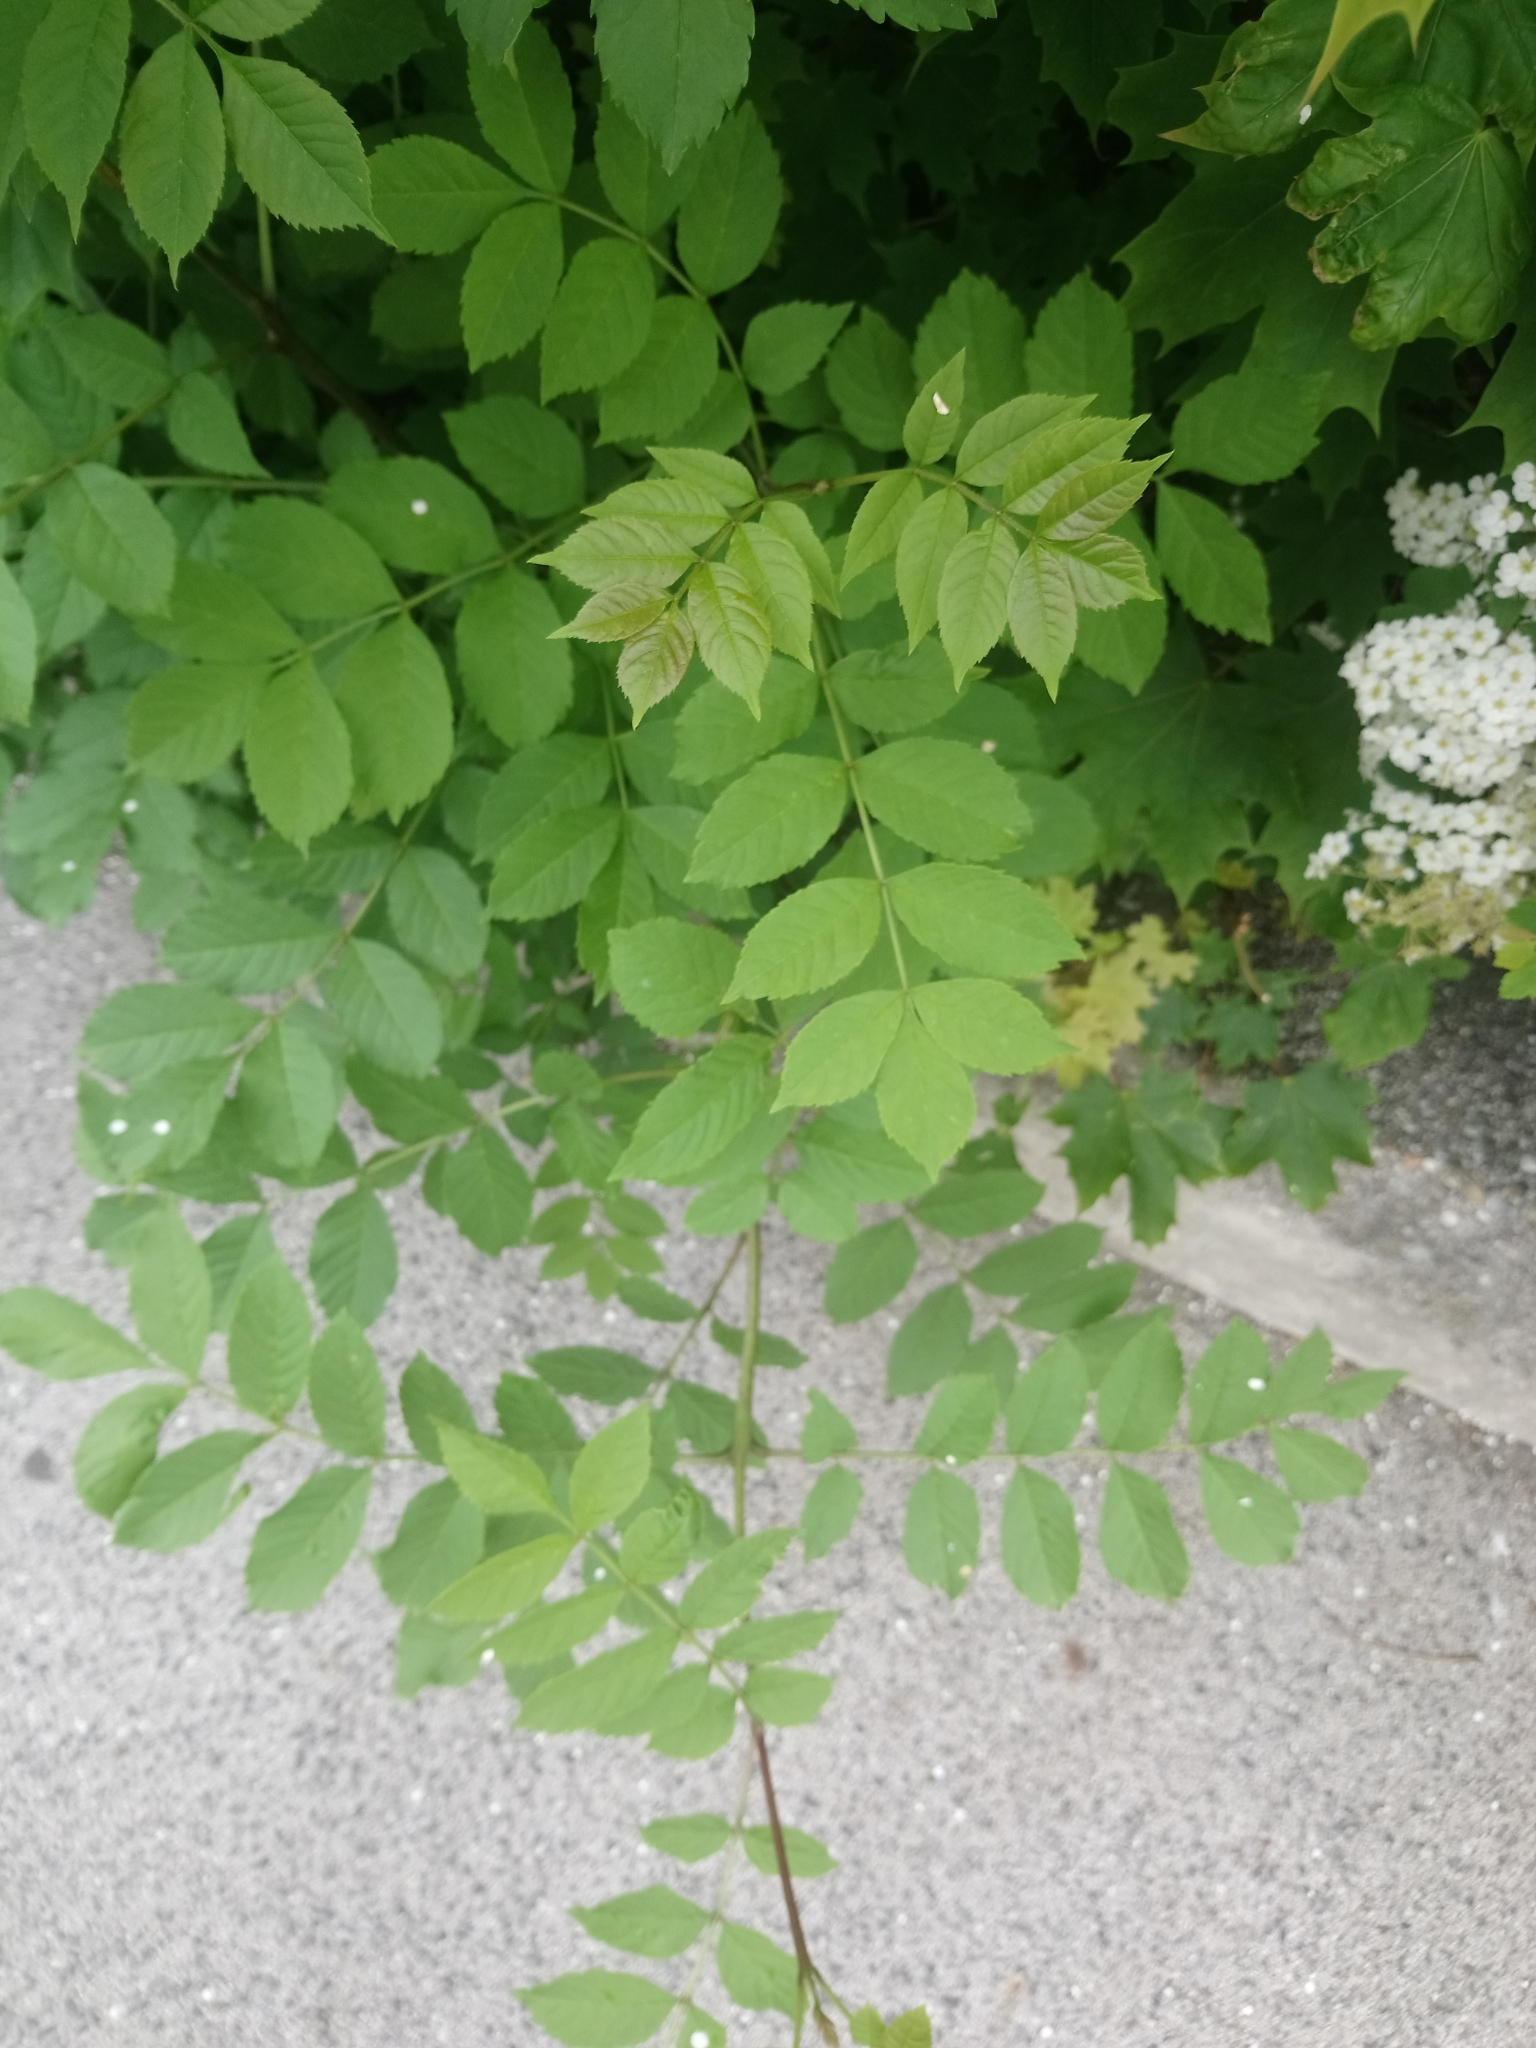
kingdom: Plantae
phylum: Tracheophyta
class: Magnoliopsida
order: Lamiales
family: Oleaceae
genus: Fraxinus
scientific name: Fraxinus excelsior
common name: European ash
